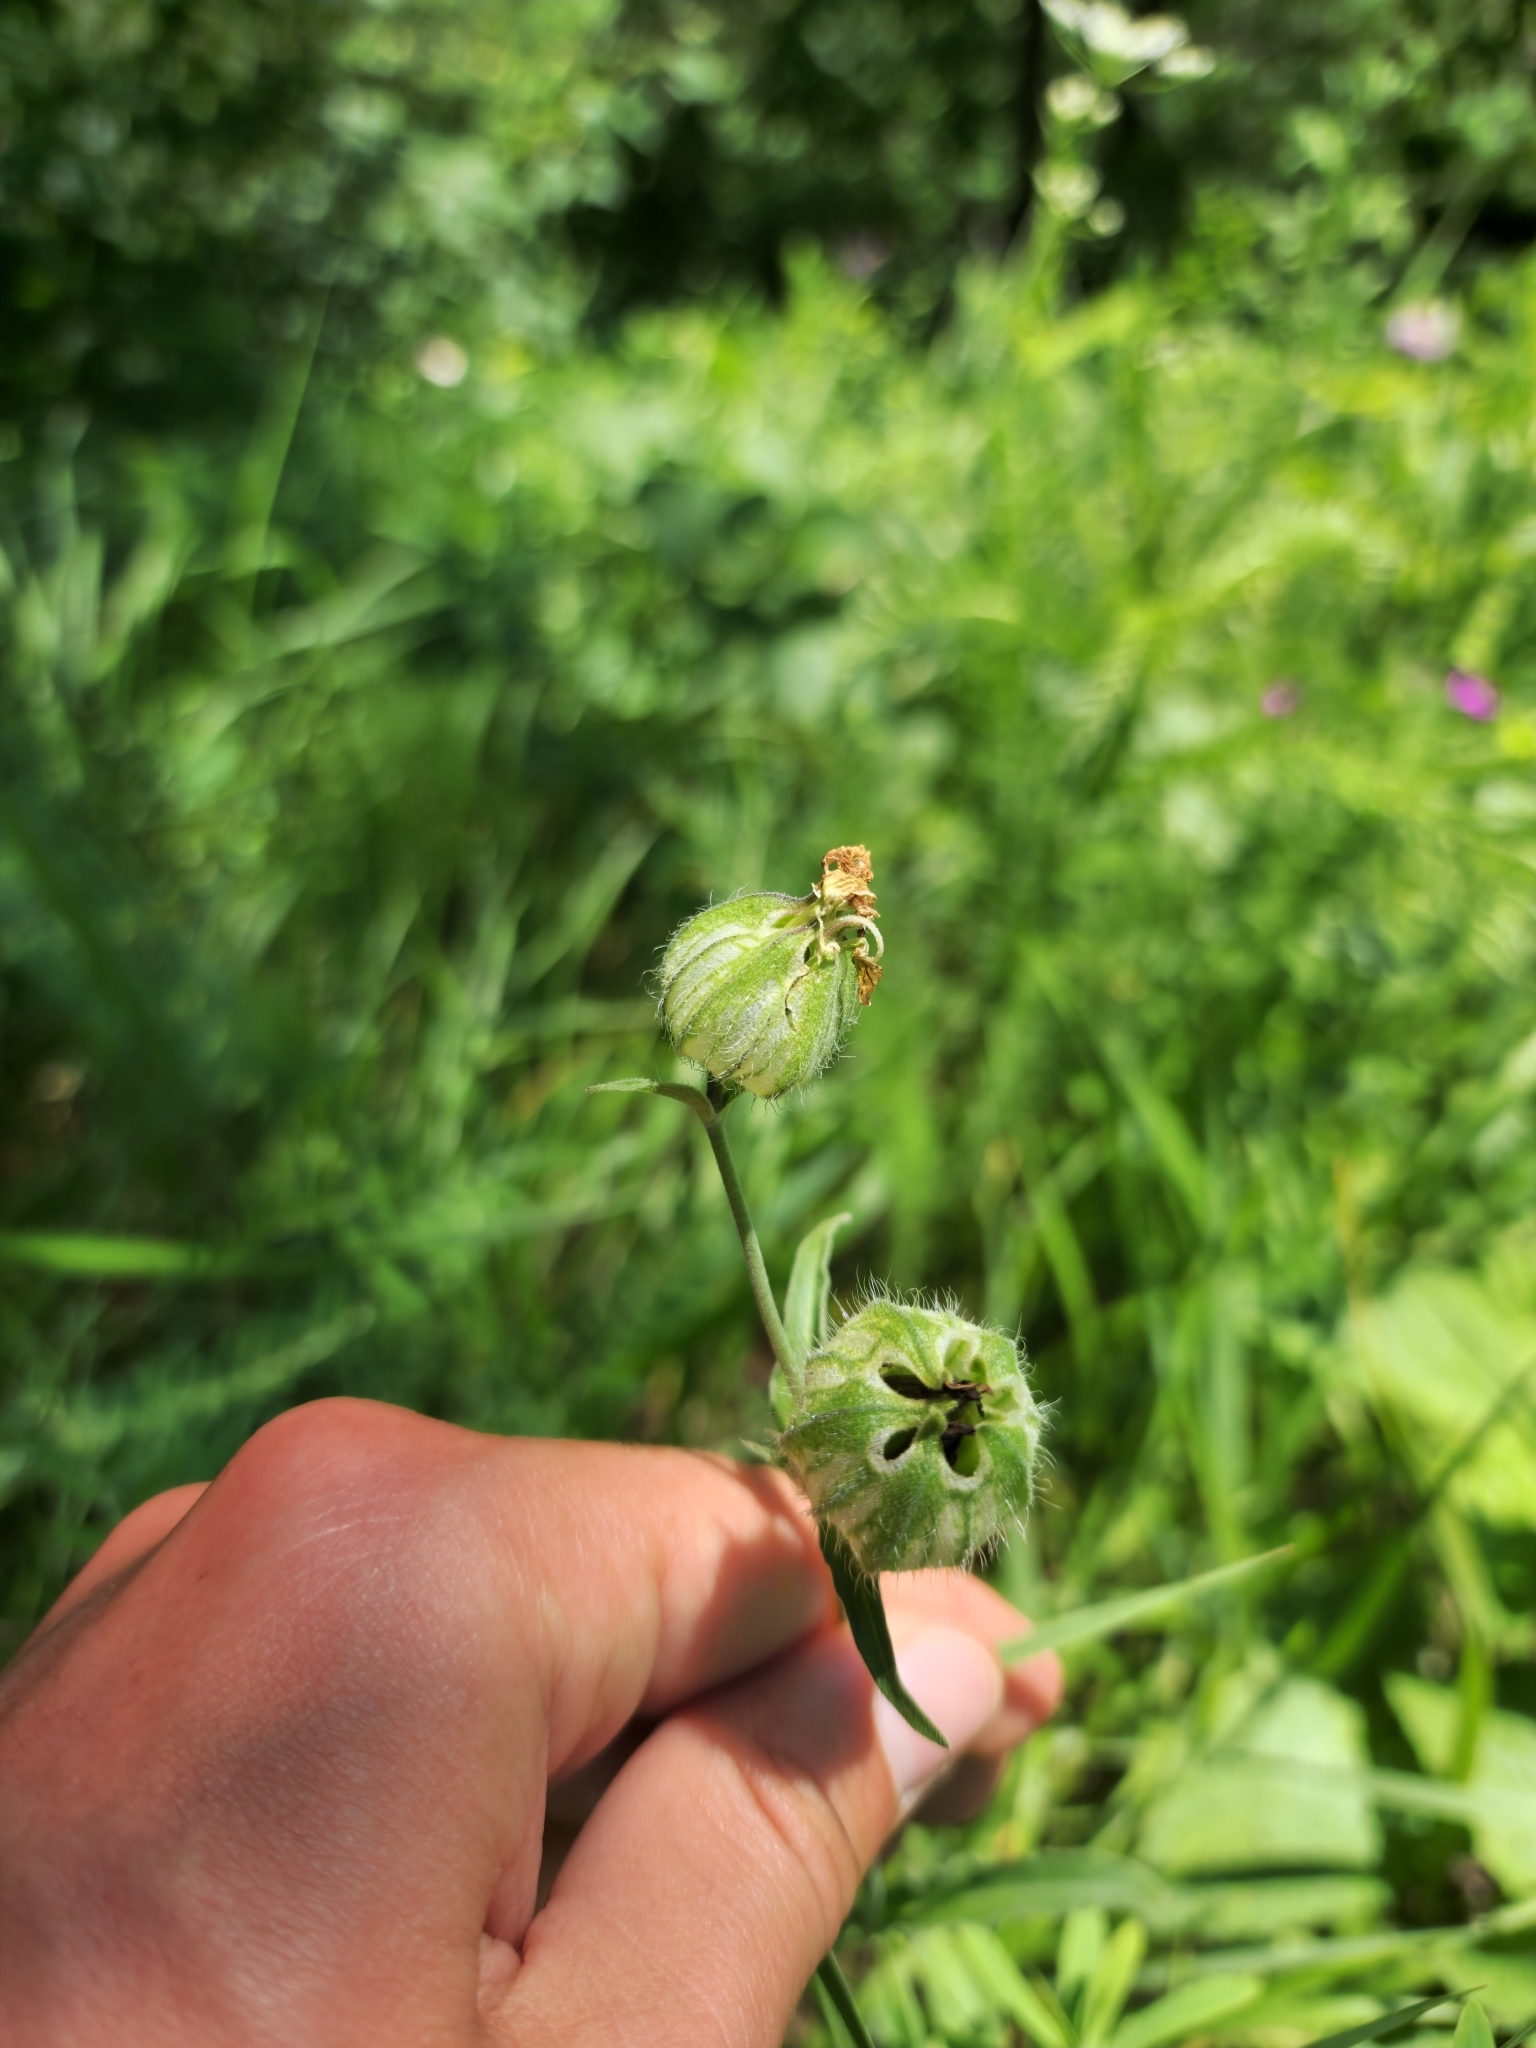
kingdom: Plantae
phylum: Tracheophyta
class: Magnoliopsida
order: Caryophyllales
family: Caryophyllaceae
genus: Silene
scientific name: Silene latifolia
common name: White campion
